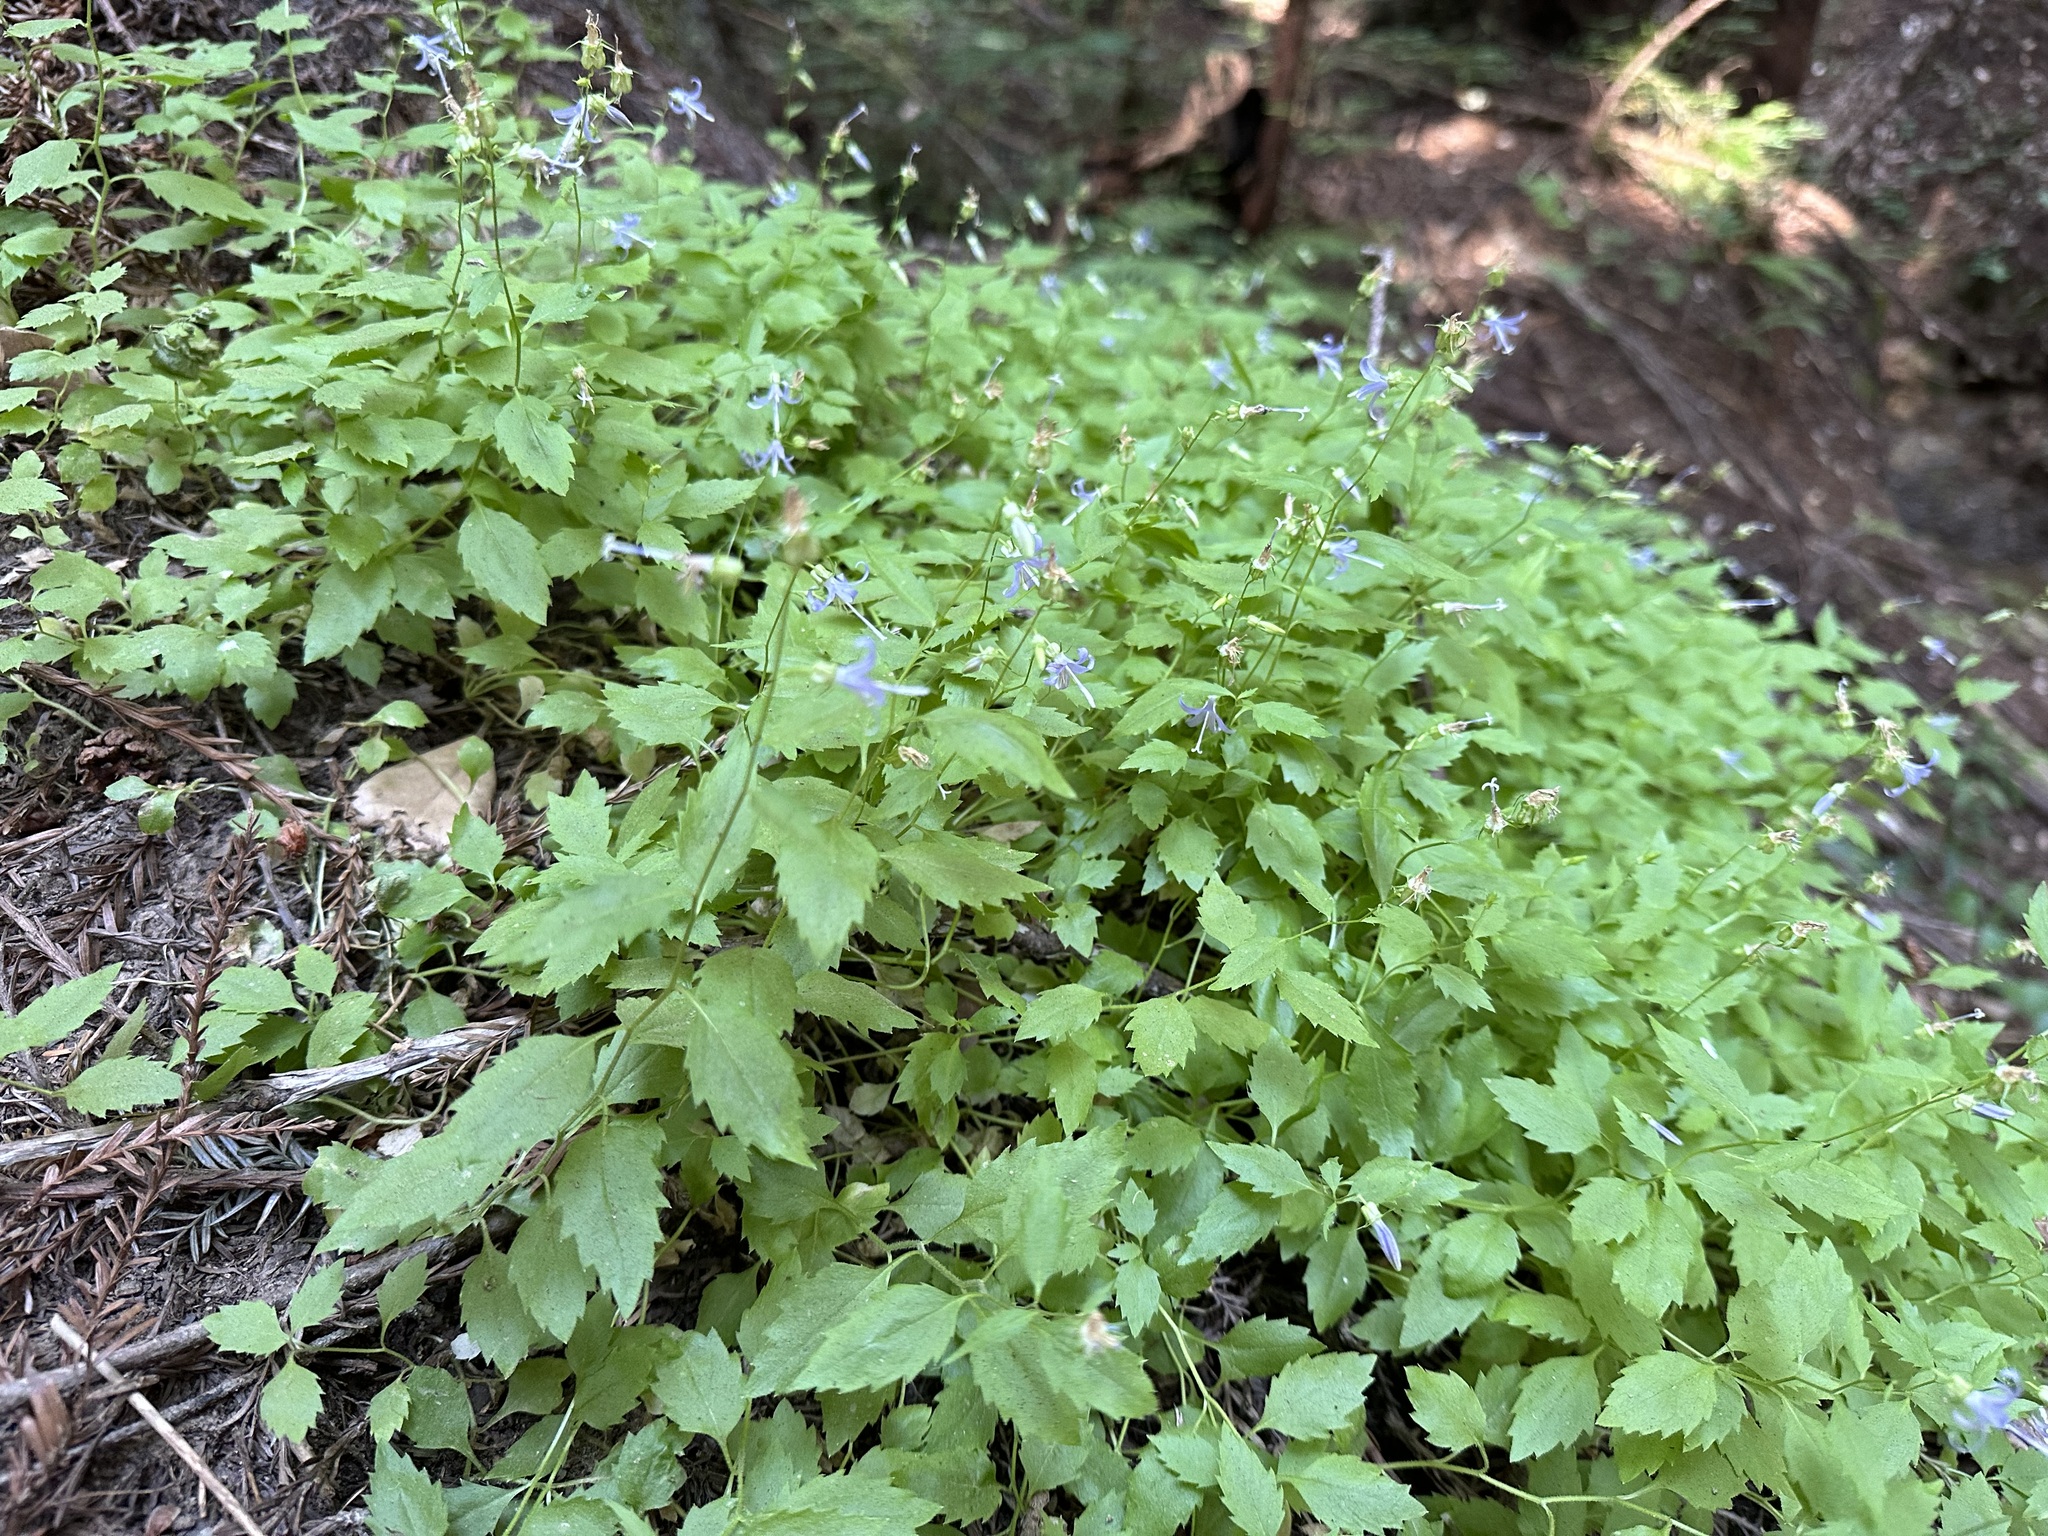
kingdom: Plantae
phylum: Tracheophyta
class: Magnoliopsida
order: Asterales
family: Campanulaceae
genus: Smithiastrum
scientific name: Smithiastrum prenanthoides
